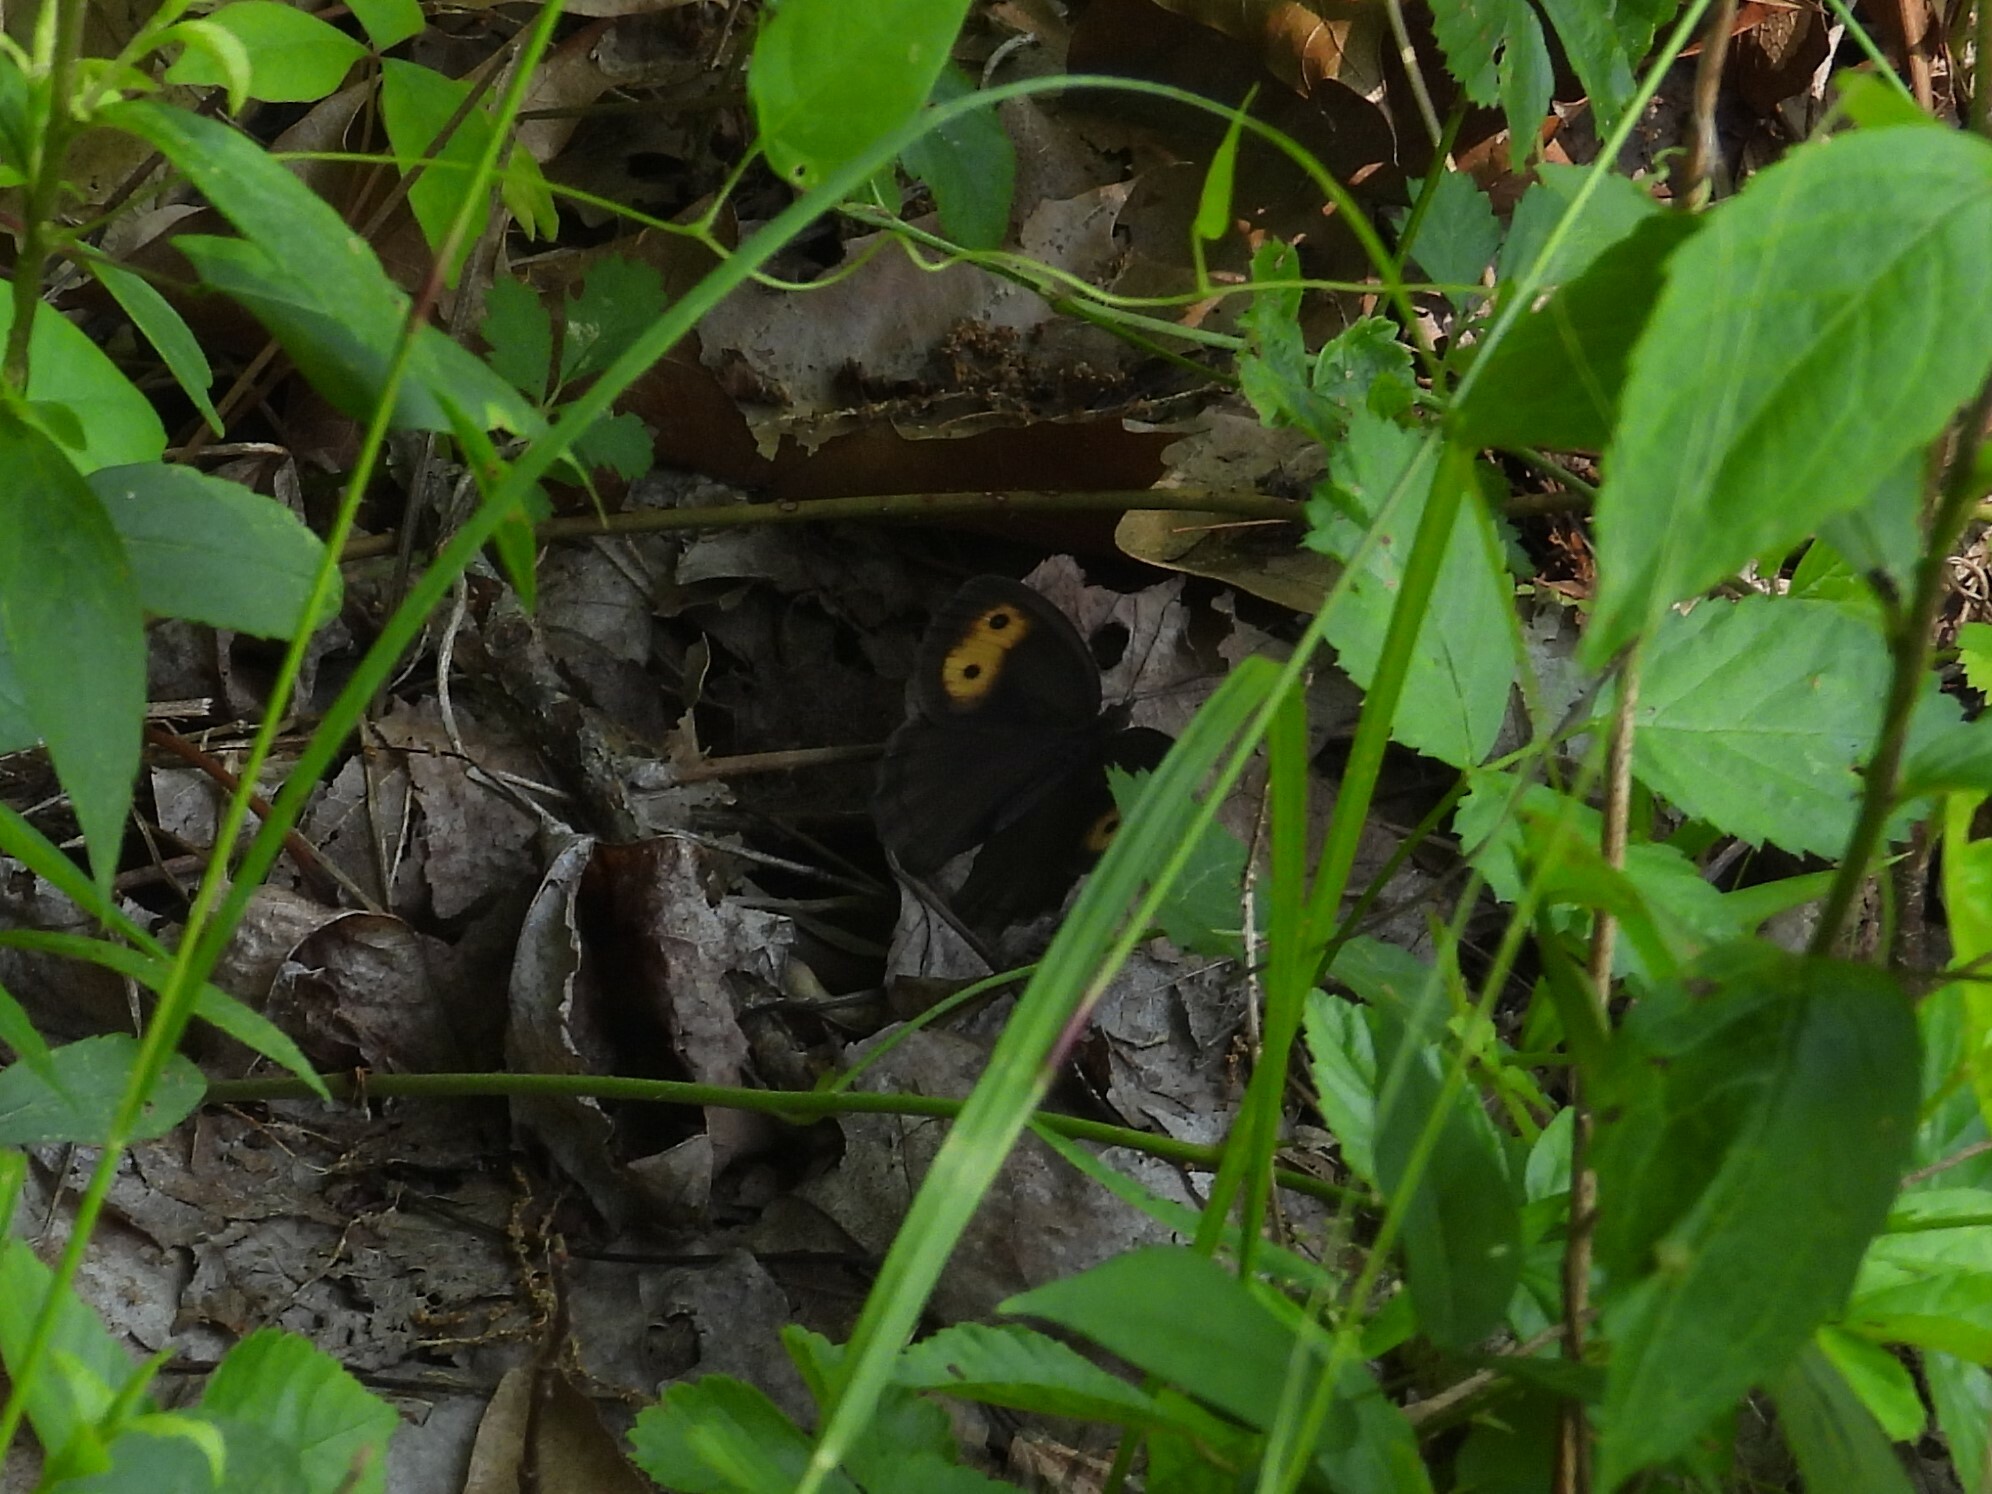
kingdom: Animalia
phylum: Arthropoda
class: Insecta
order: Lepidoptera
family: Nymphalidae
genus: Cercyonis
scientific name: Cercyonis pegala
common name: Common wood-nymph
